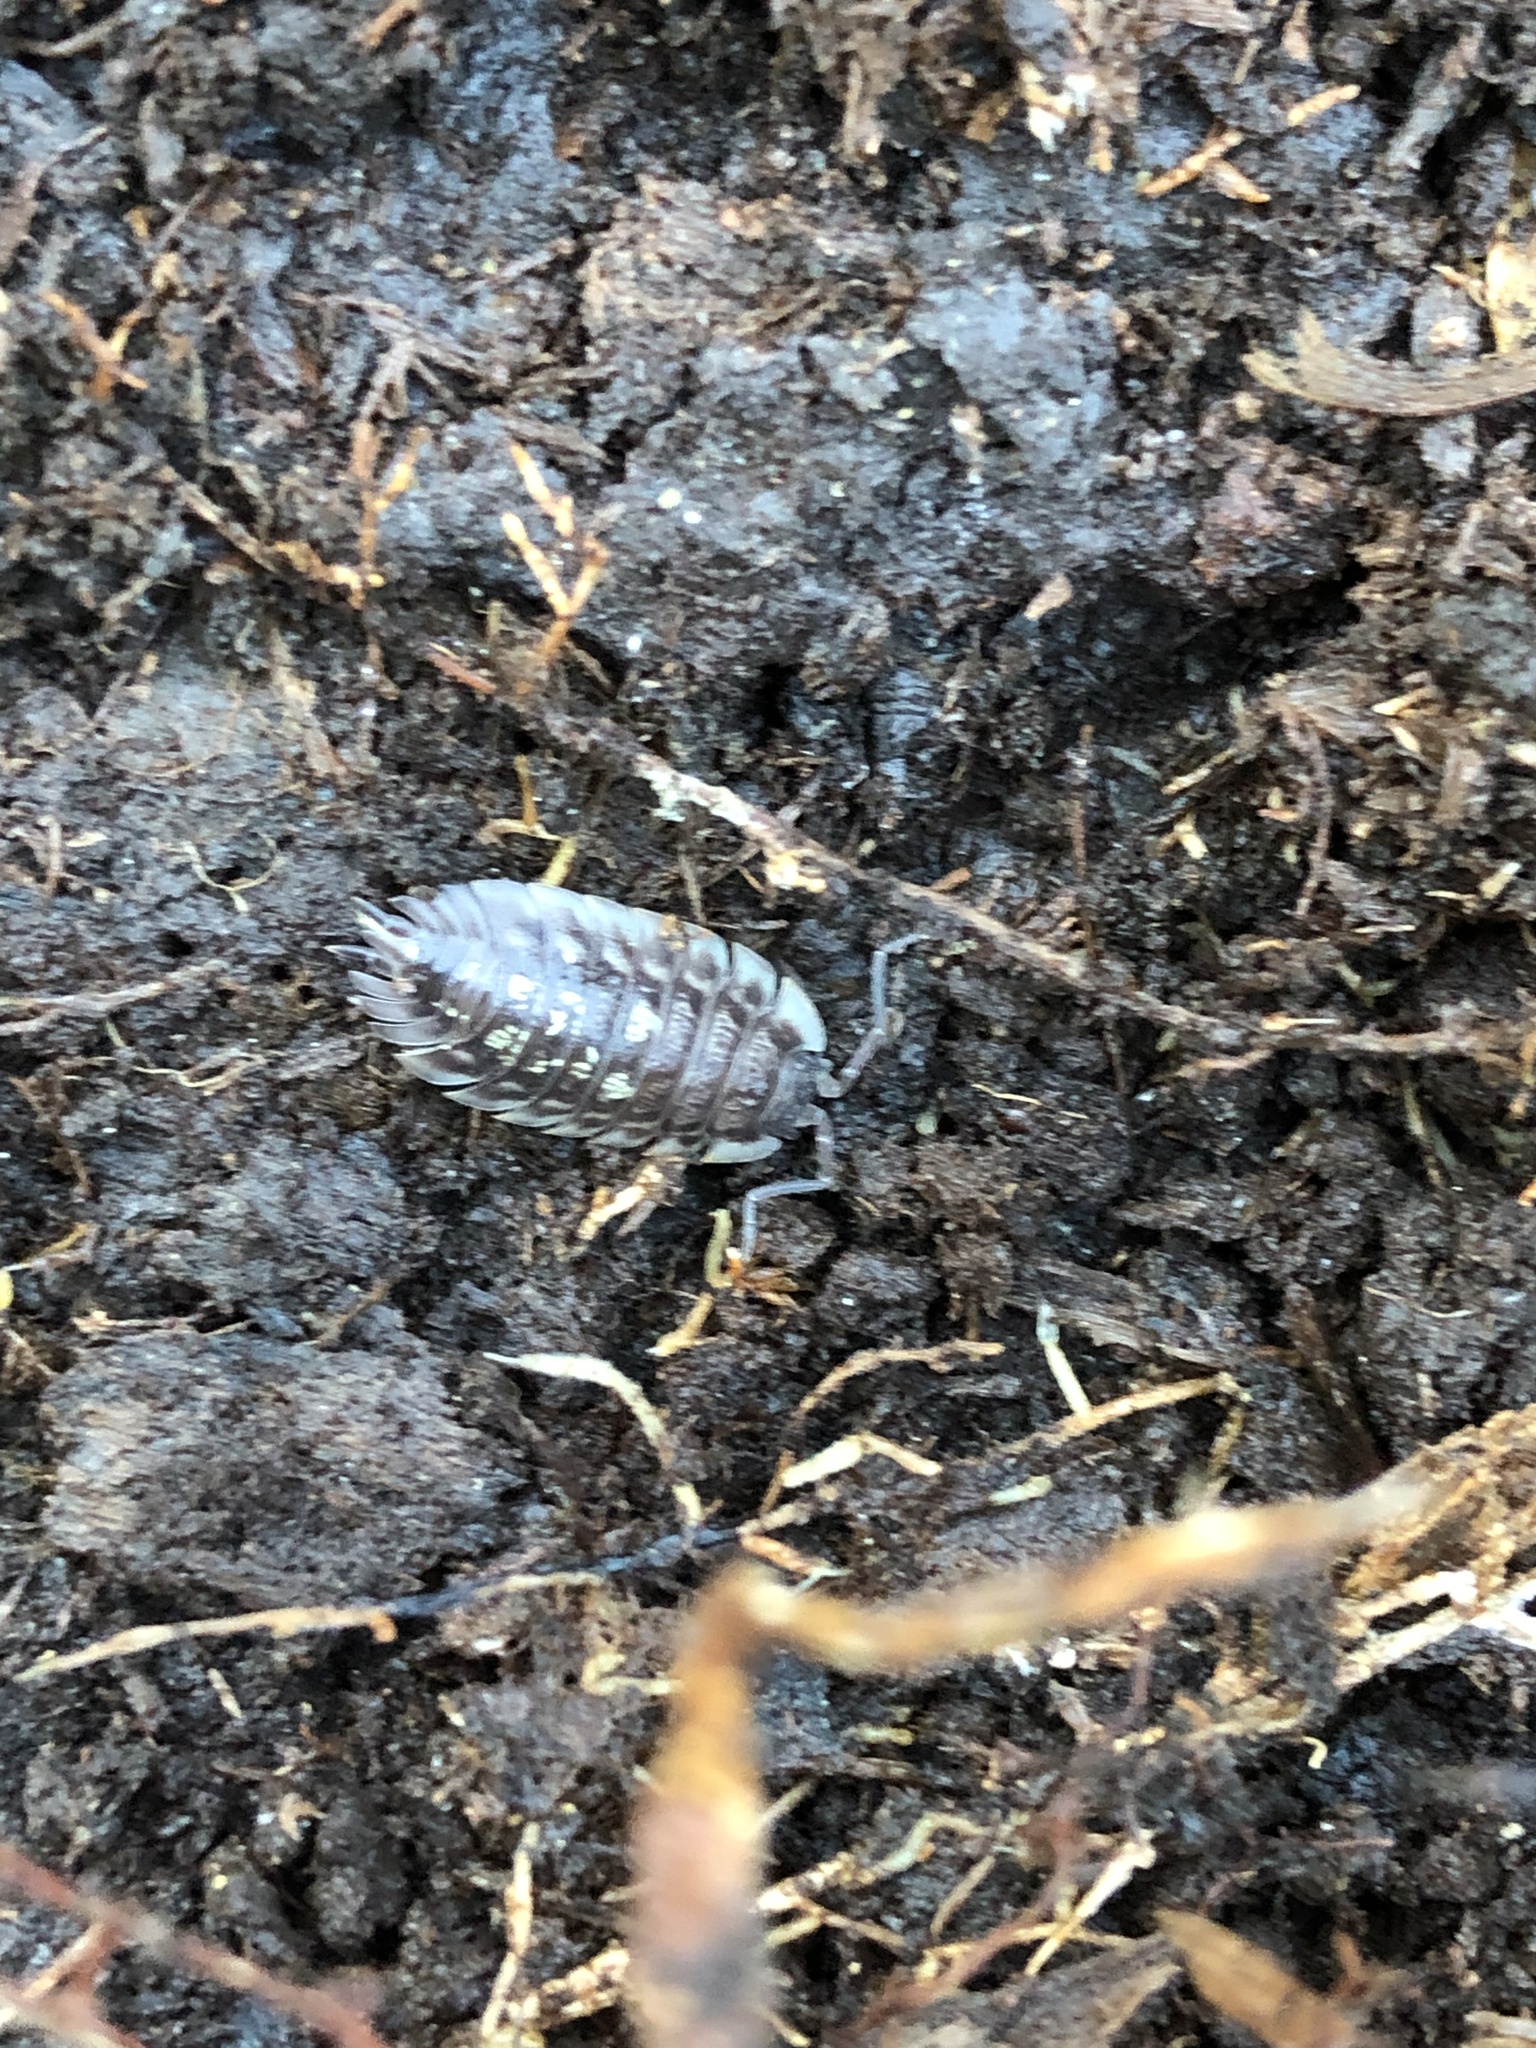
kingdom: Animalia
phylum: Arthropoda
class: Malacostraca
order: Isopoda
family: Oniscidae
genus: Oniscus
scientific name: Oniscus asellus
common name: Common shiny woodlouse
